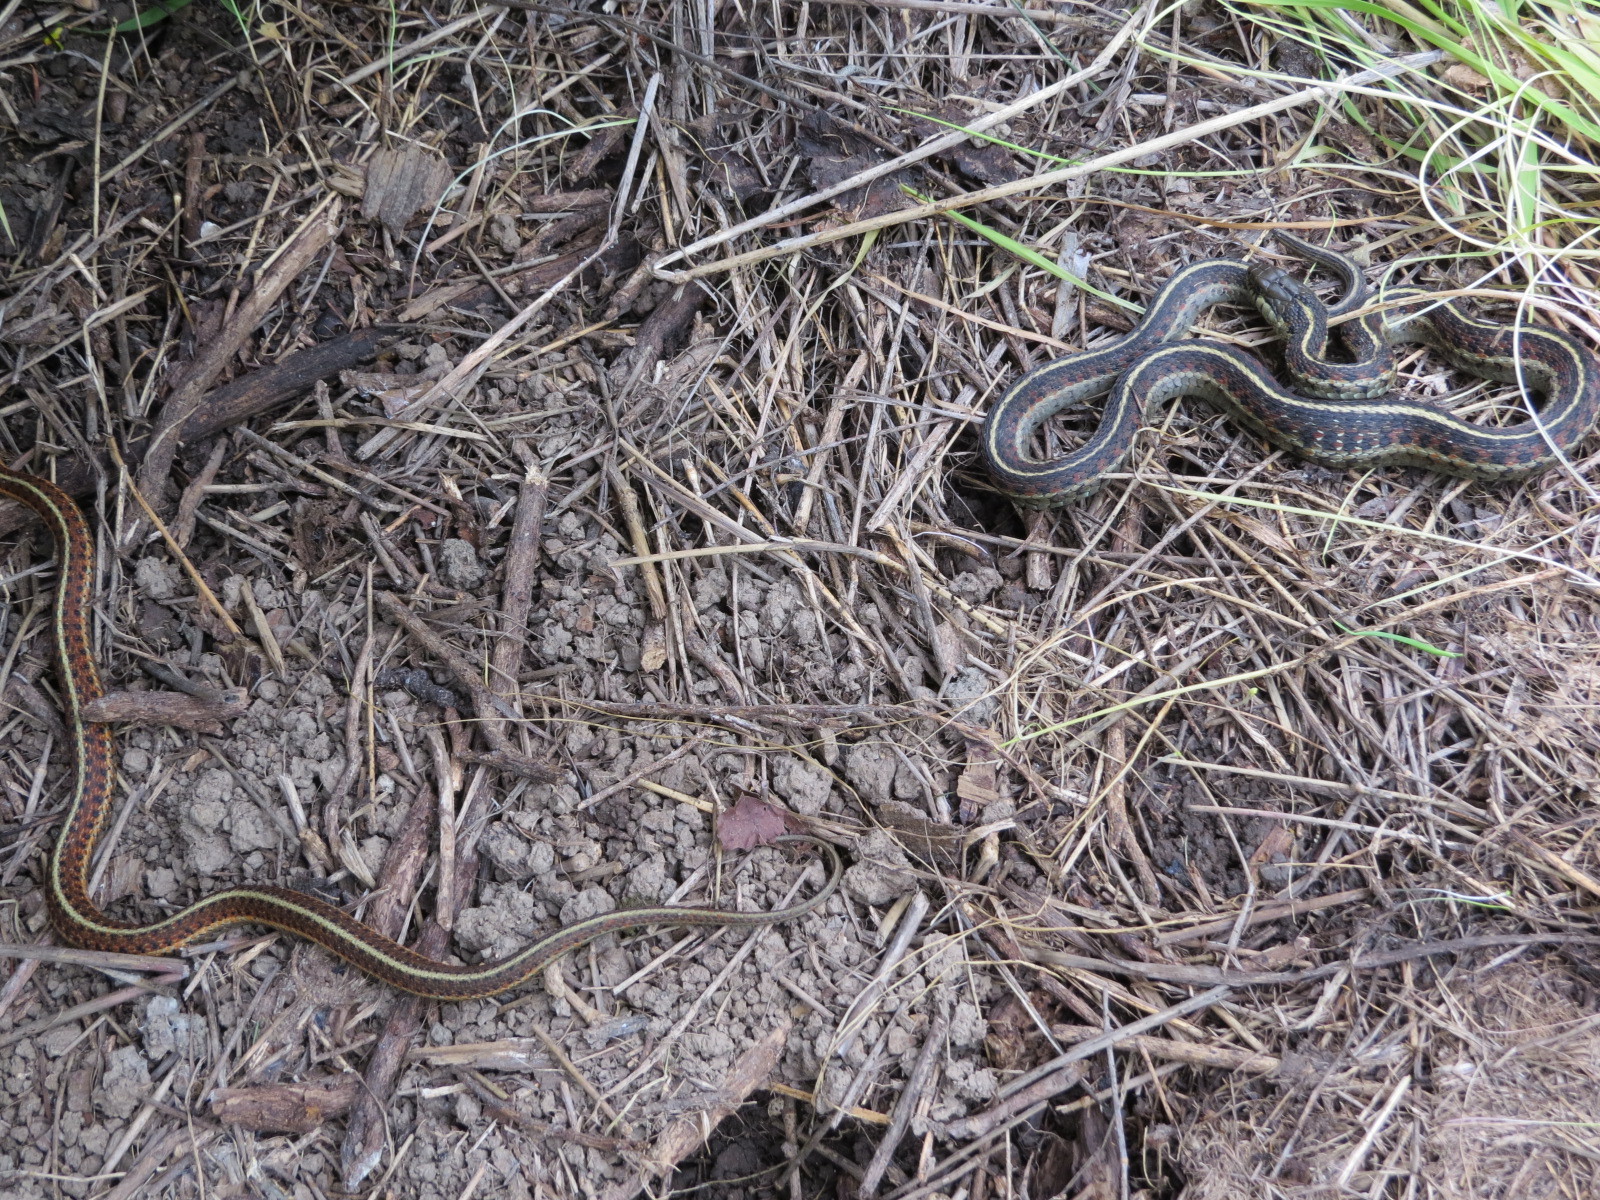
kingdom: Animalia
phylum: Chordata
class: Squamata
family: Colubridae
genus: Thamnophis
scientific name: Thamnophis elegans
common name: Western terrestrial garter snake
